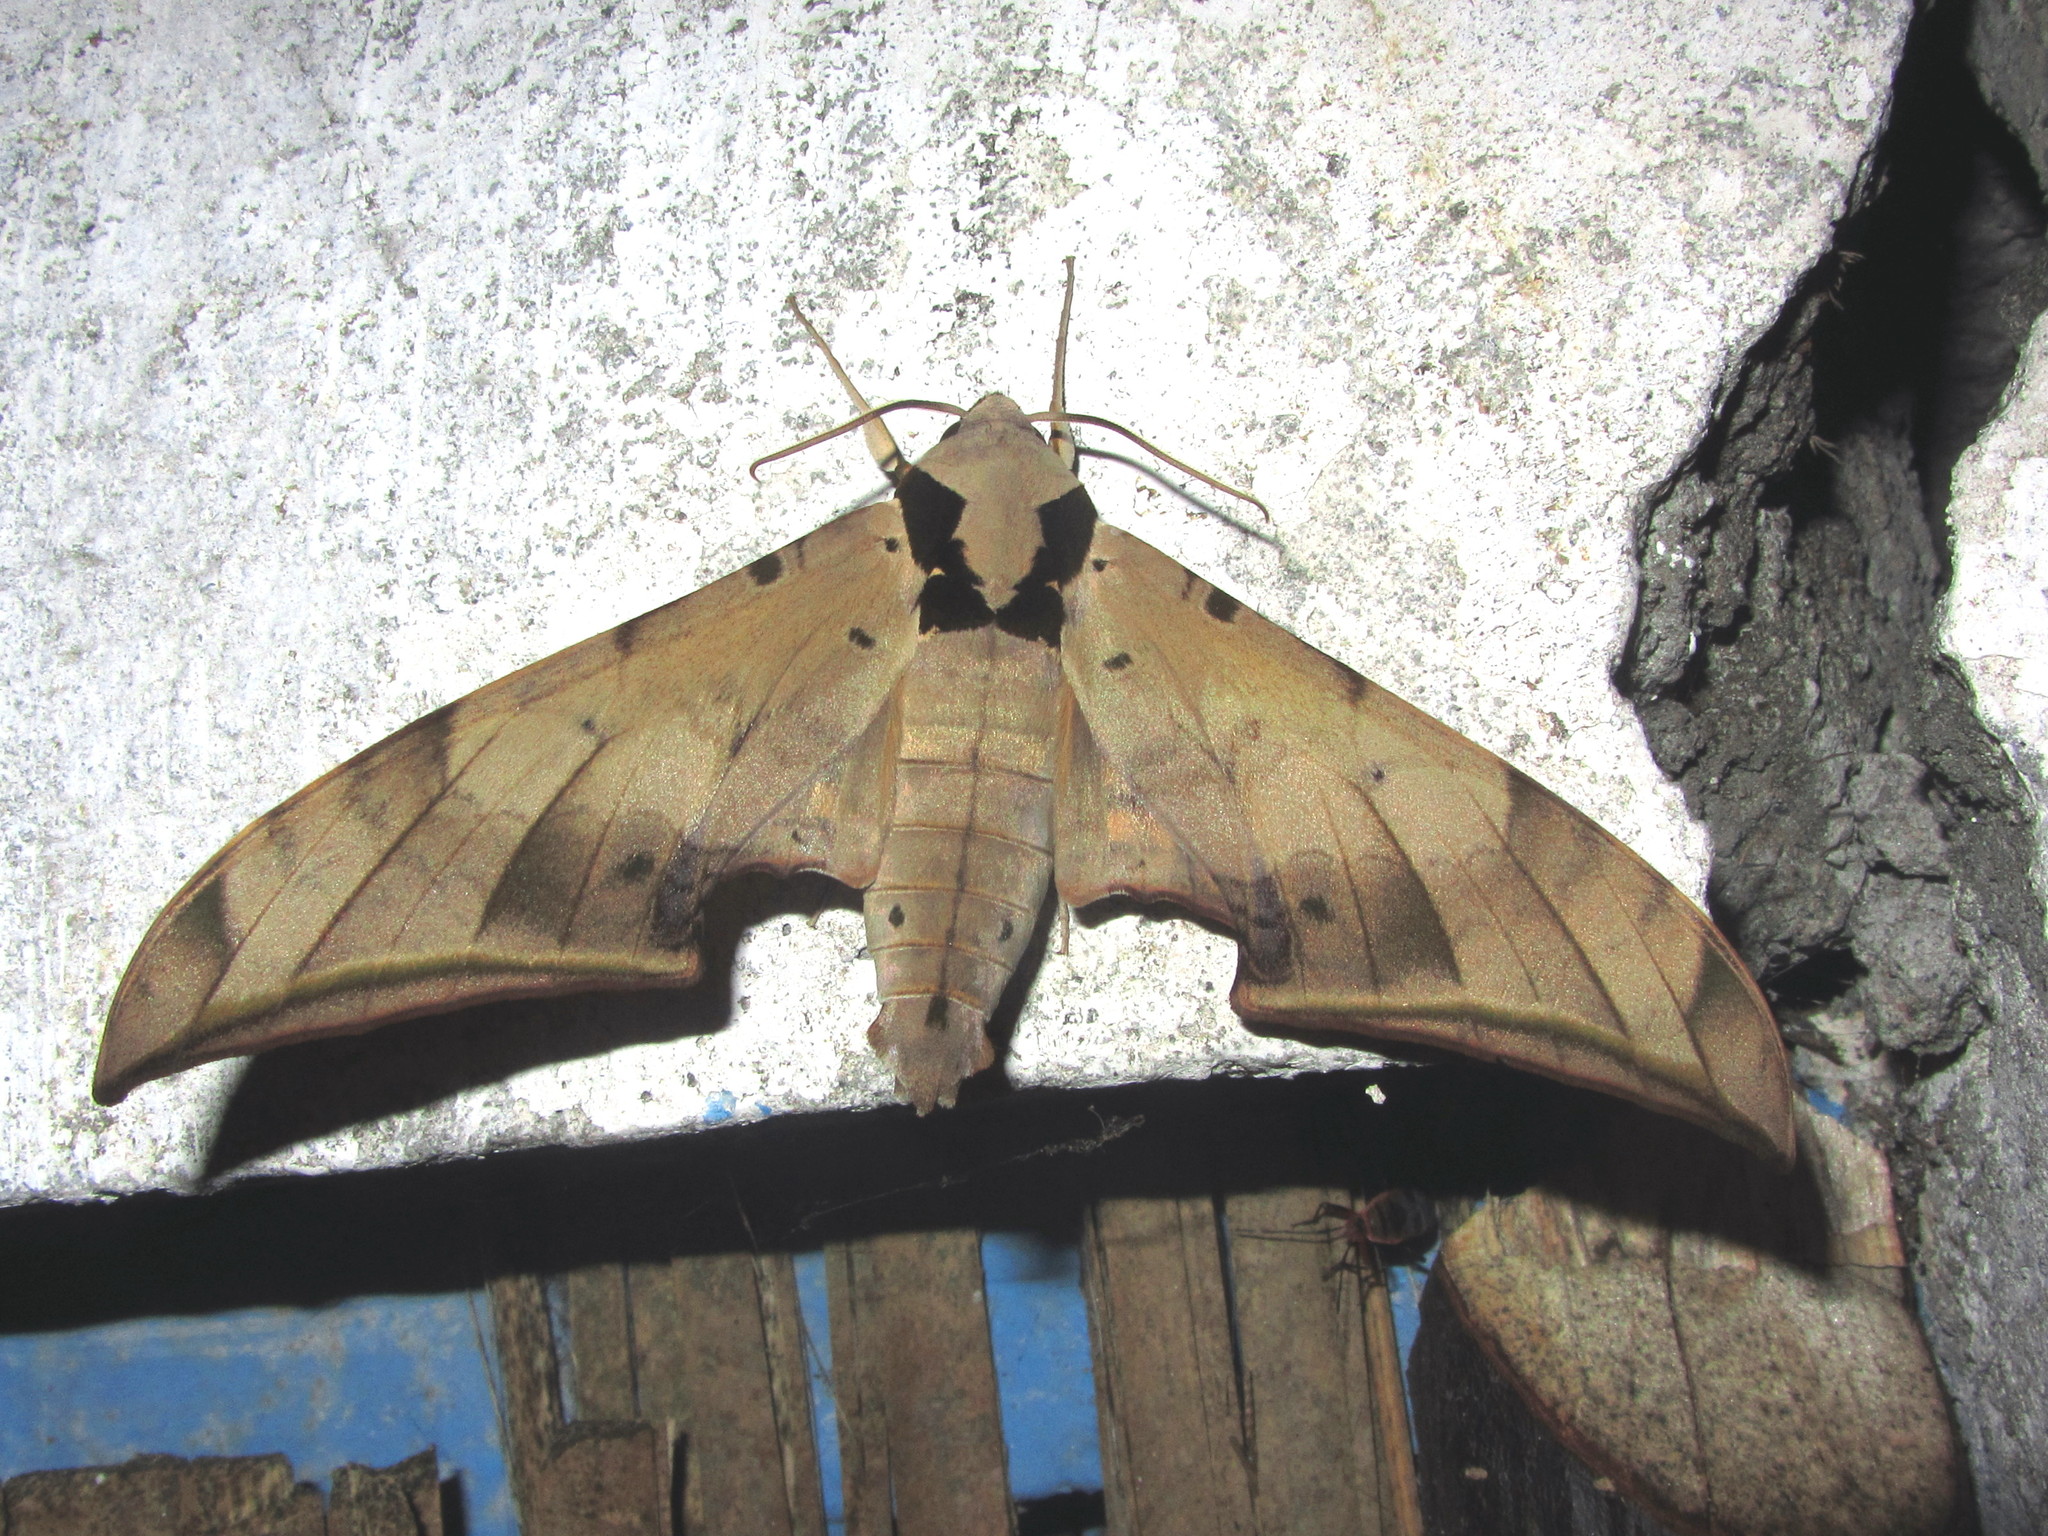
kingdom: Animalia
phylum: Arthropoda
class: Insecta
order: Lepidoptera
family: Sphingidae
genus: Ambulyx
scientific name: Ambulyx sericeipennis
